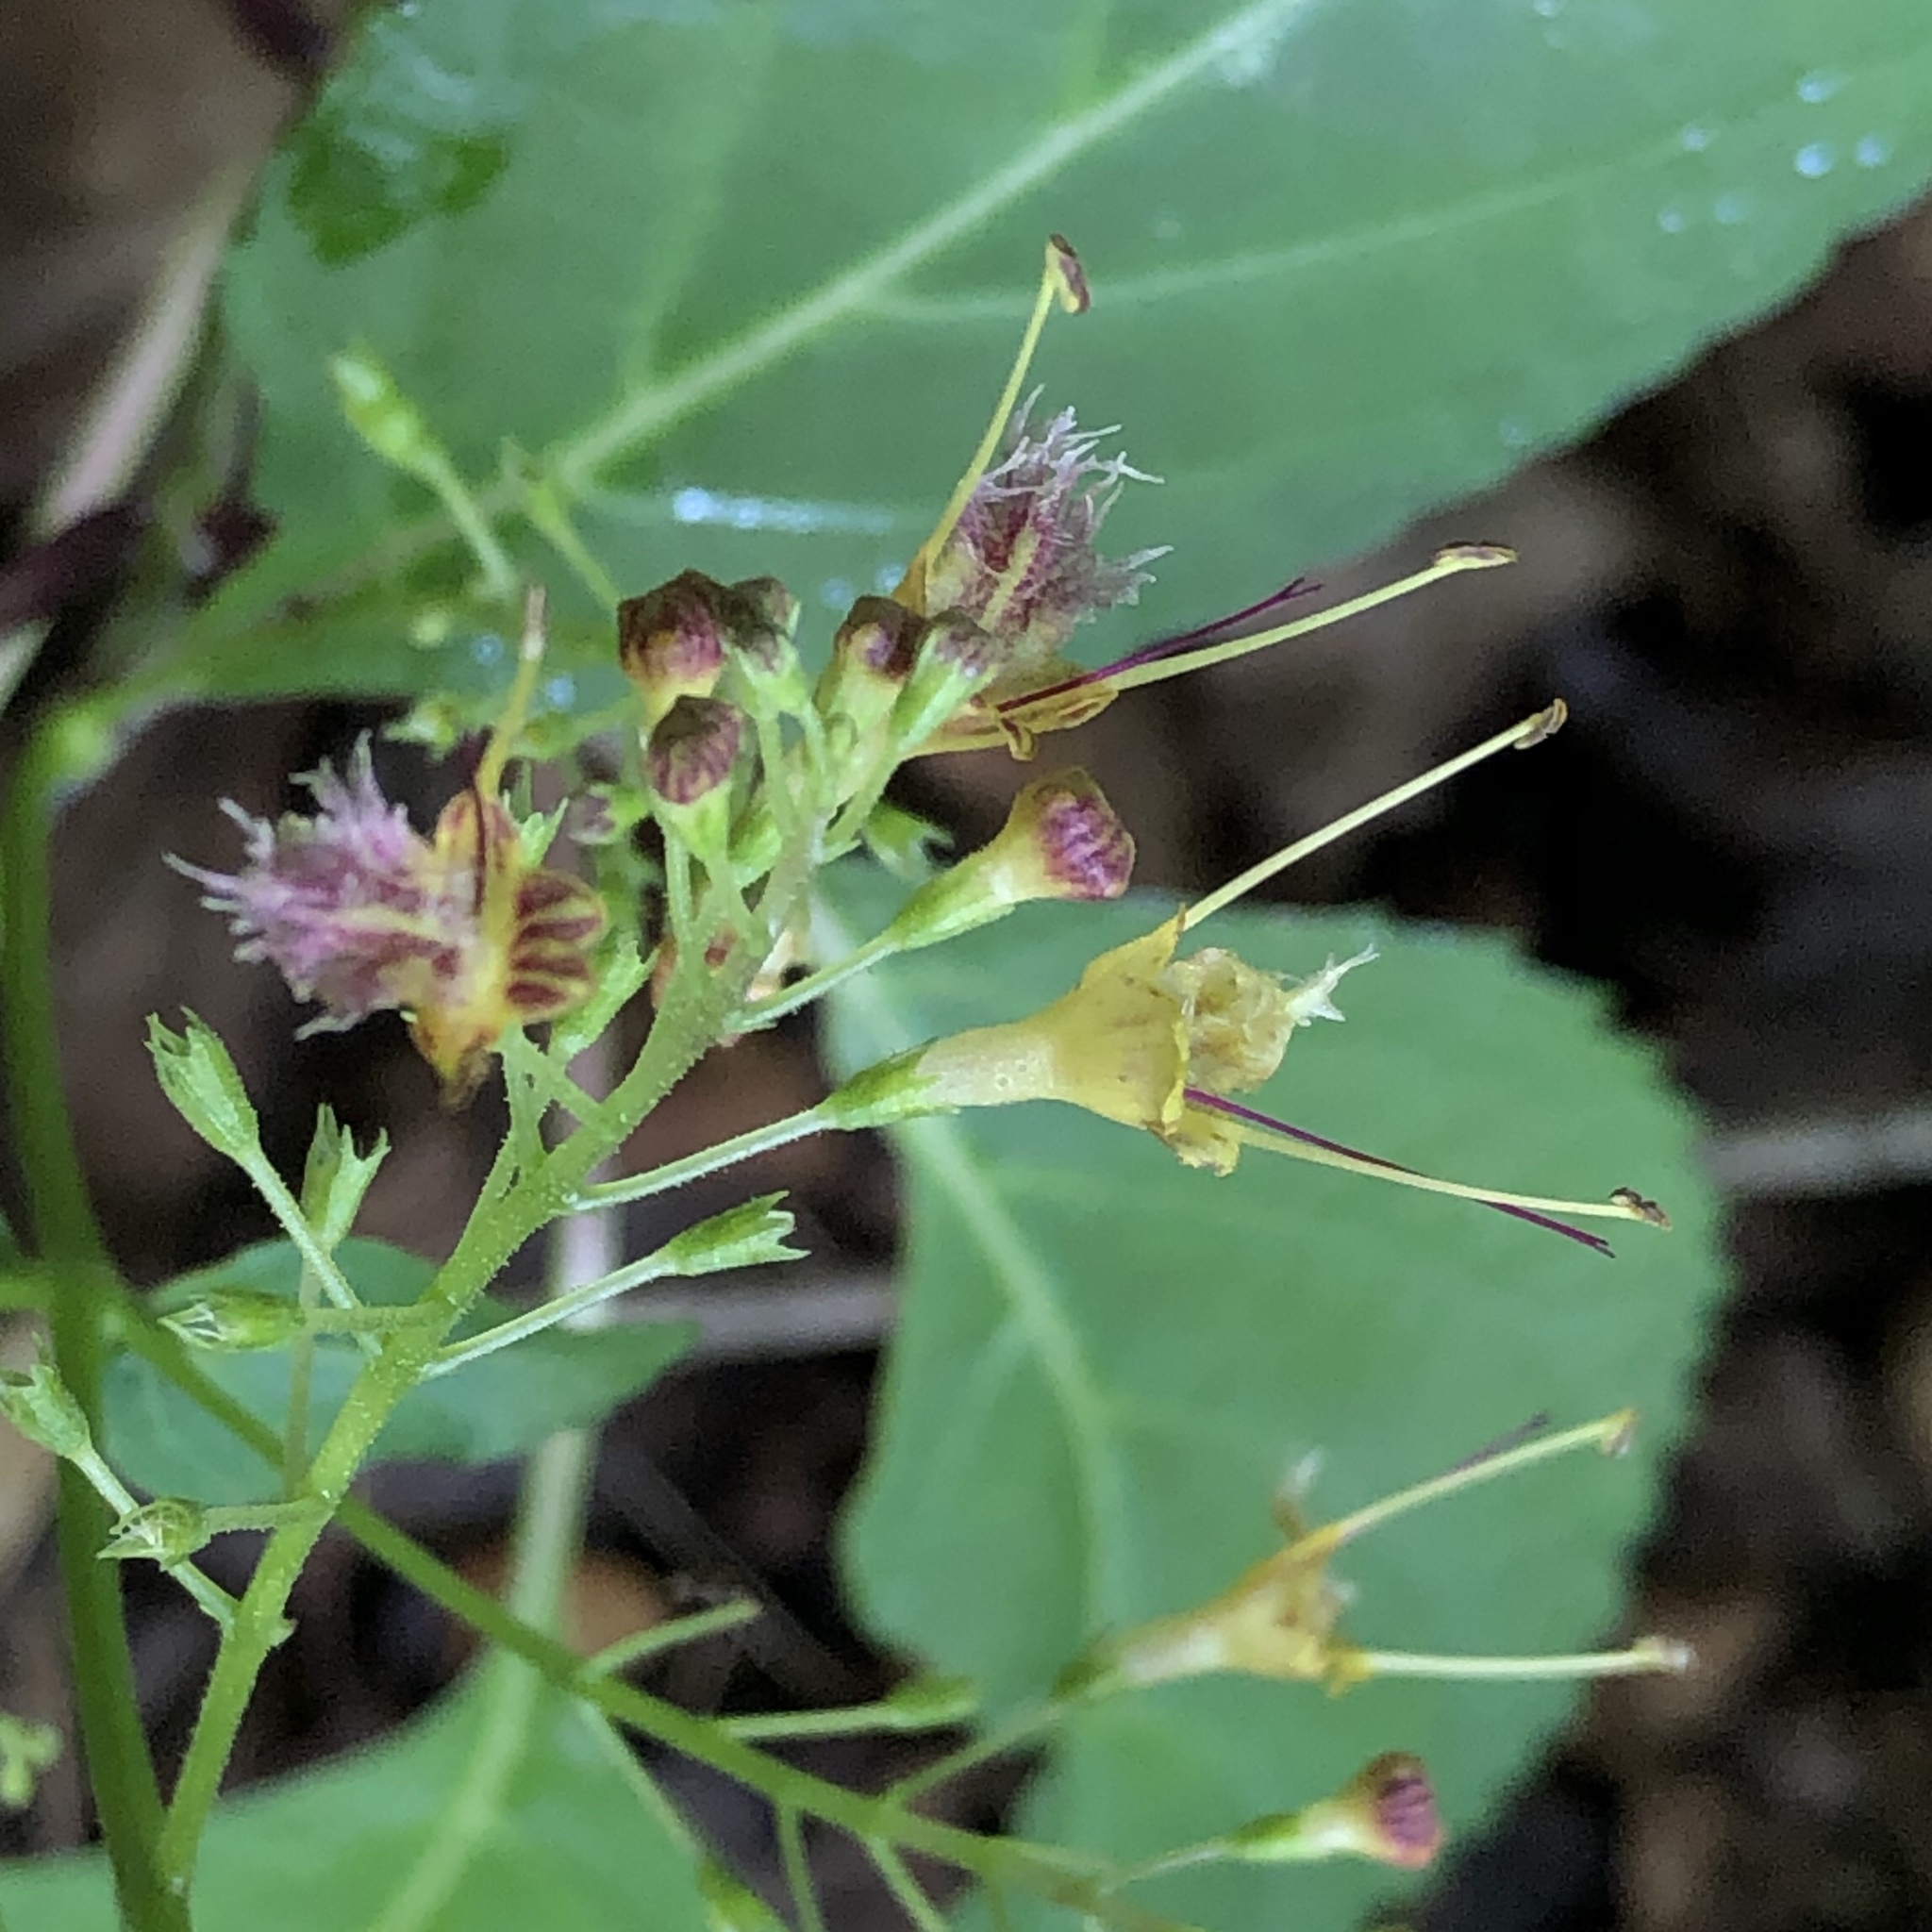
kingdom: Plantae
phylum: Tracheophyta
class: Magnoliopsida
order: Lamiales
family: Lamiaceae
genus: Collinsonia
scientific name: Collinsonia canadensis
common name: Northern horsebalm
